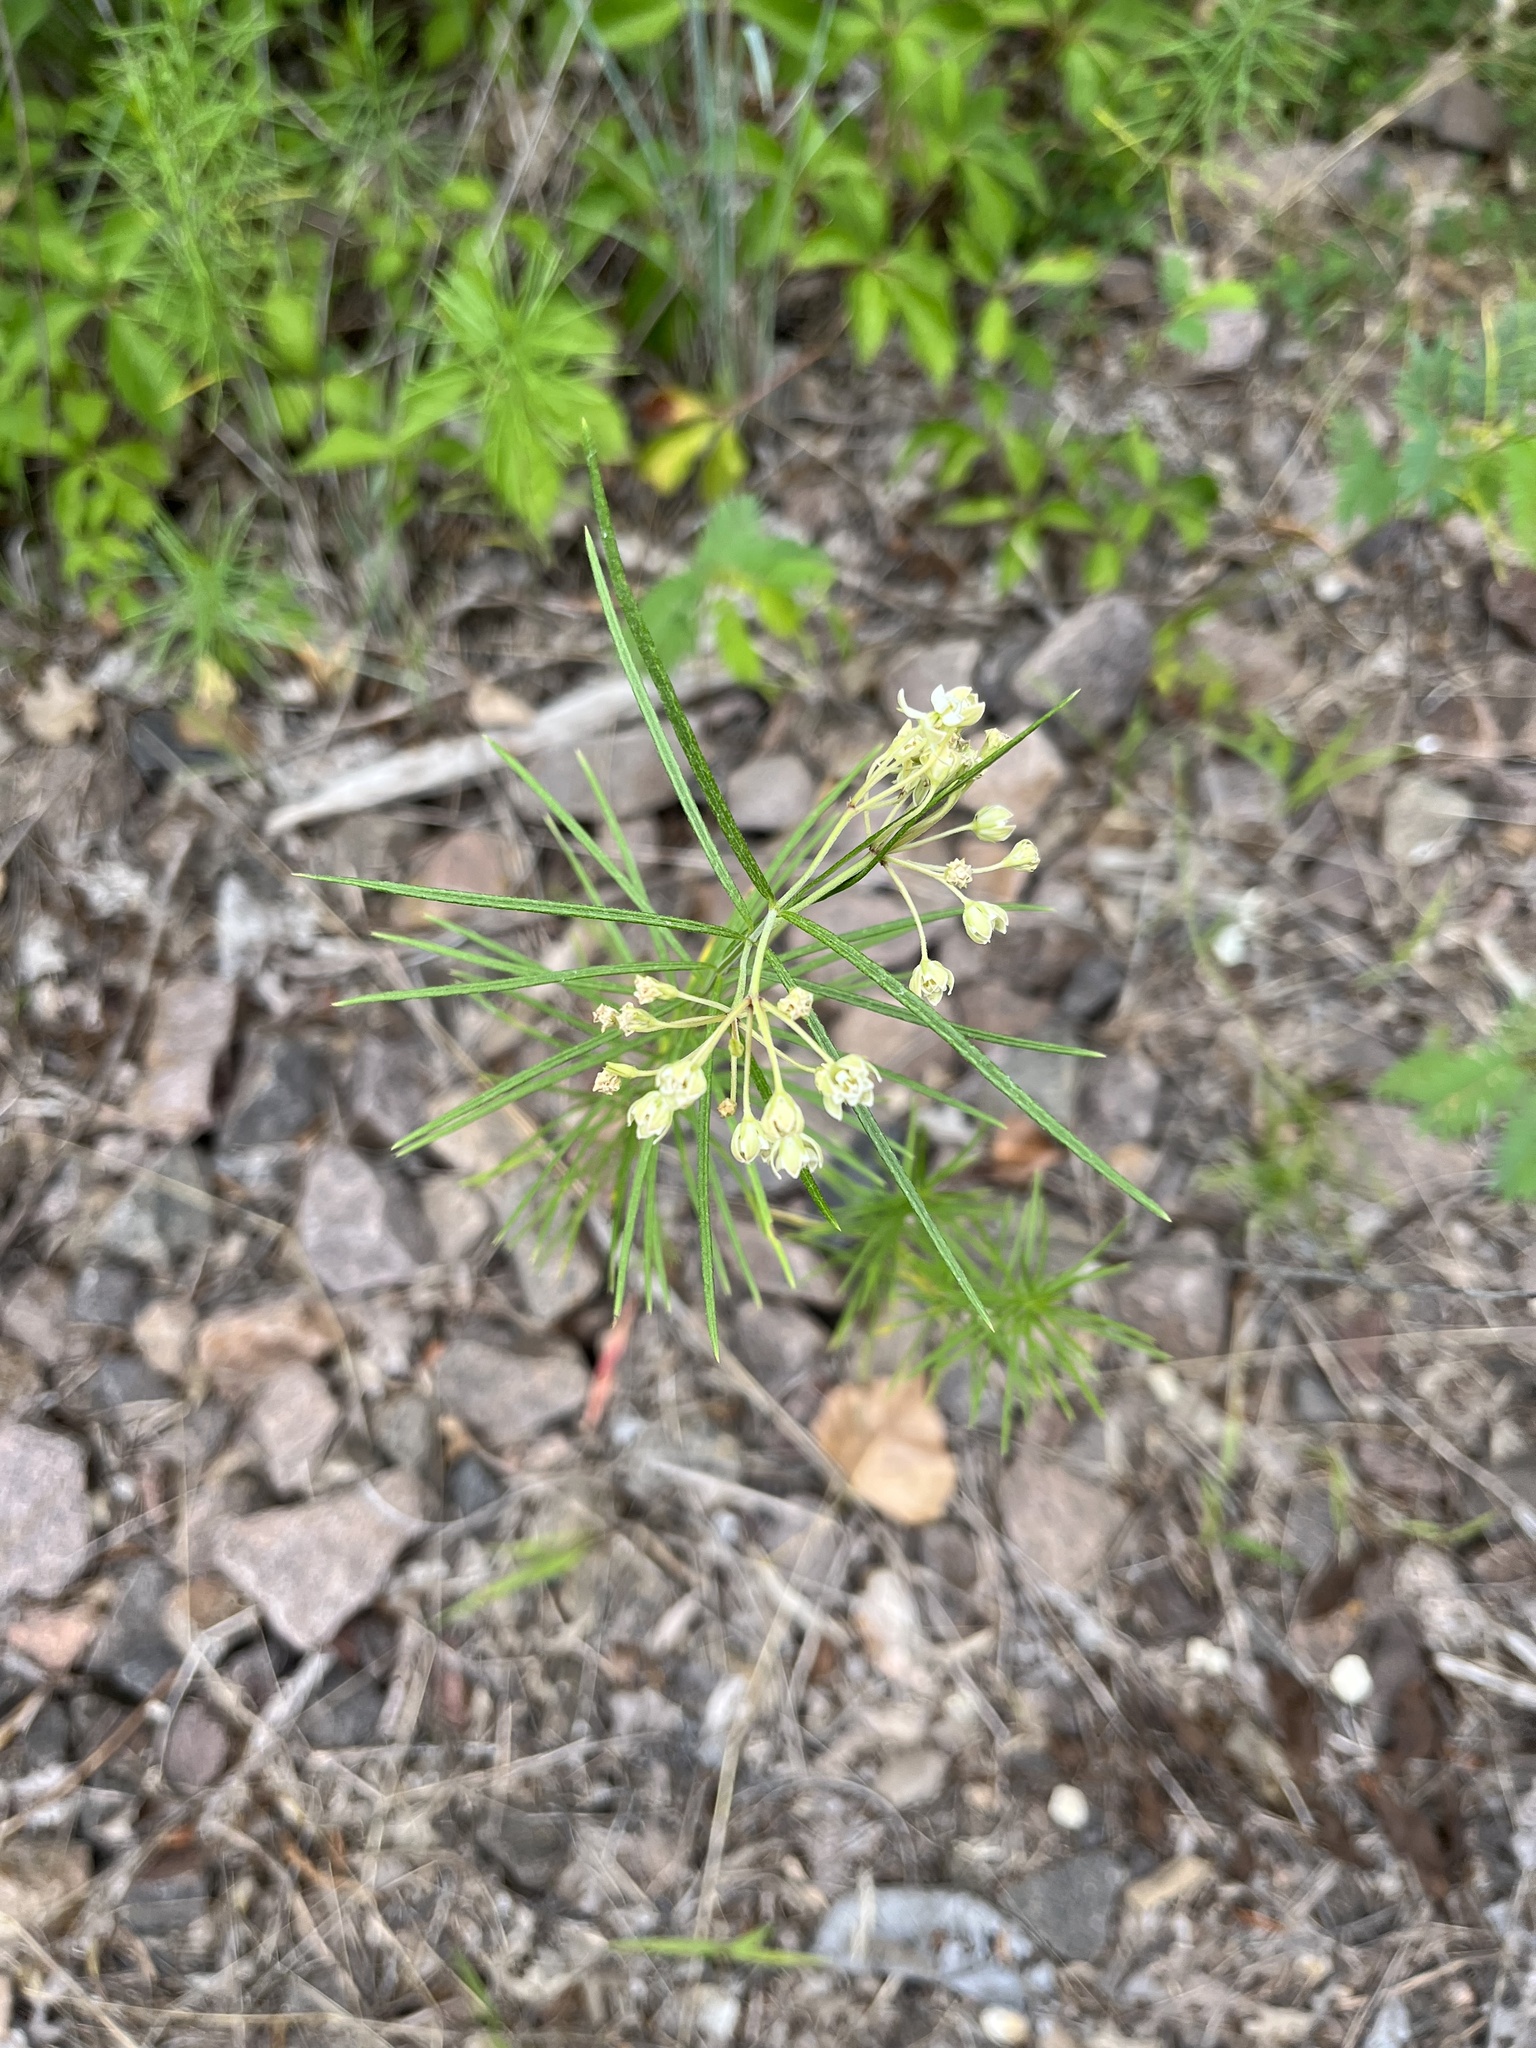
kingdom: Plantae
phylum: Tracheophyta
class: Magnoliopsida
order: Gentianales
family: Apocynaceae
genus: Asclepias
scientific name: Asclepias verticillata
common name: Eastern whorled milkweed
